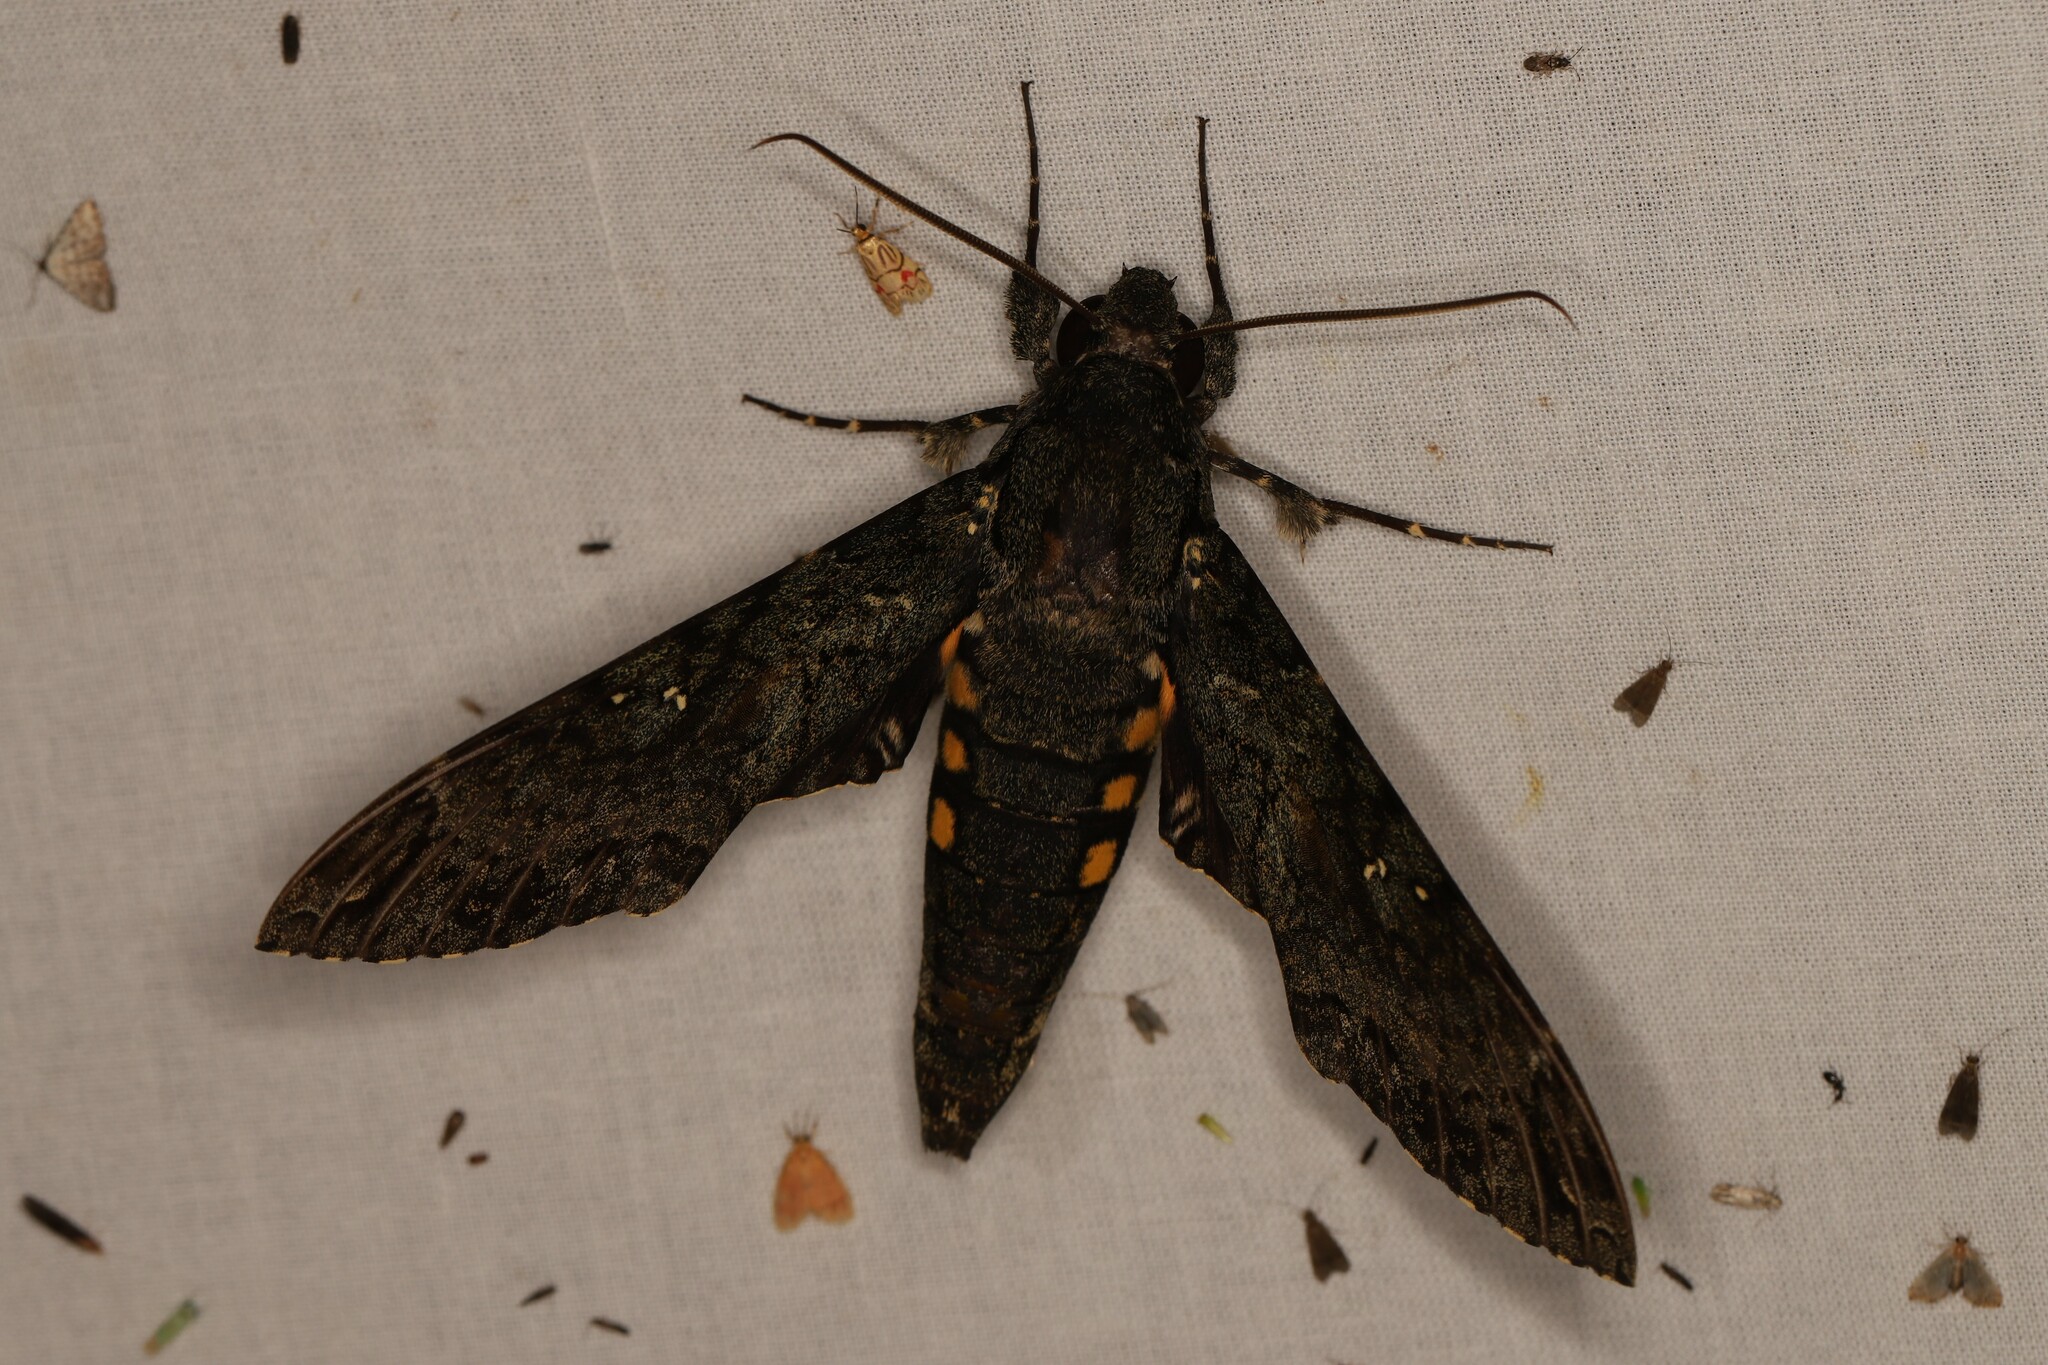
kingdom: Animalia
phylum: Arthropoda
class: Insecta
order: Lepidoptera
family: Sphingidae
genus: Cocytius
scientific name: Cocytius duponchel
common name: Duponchel's sphinx
